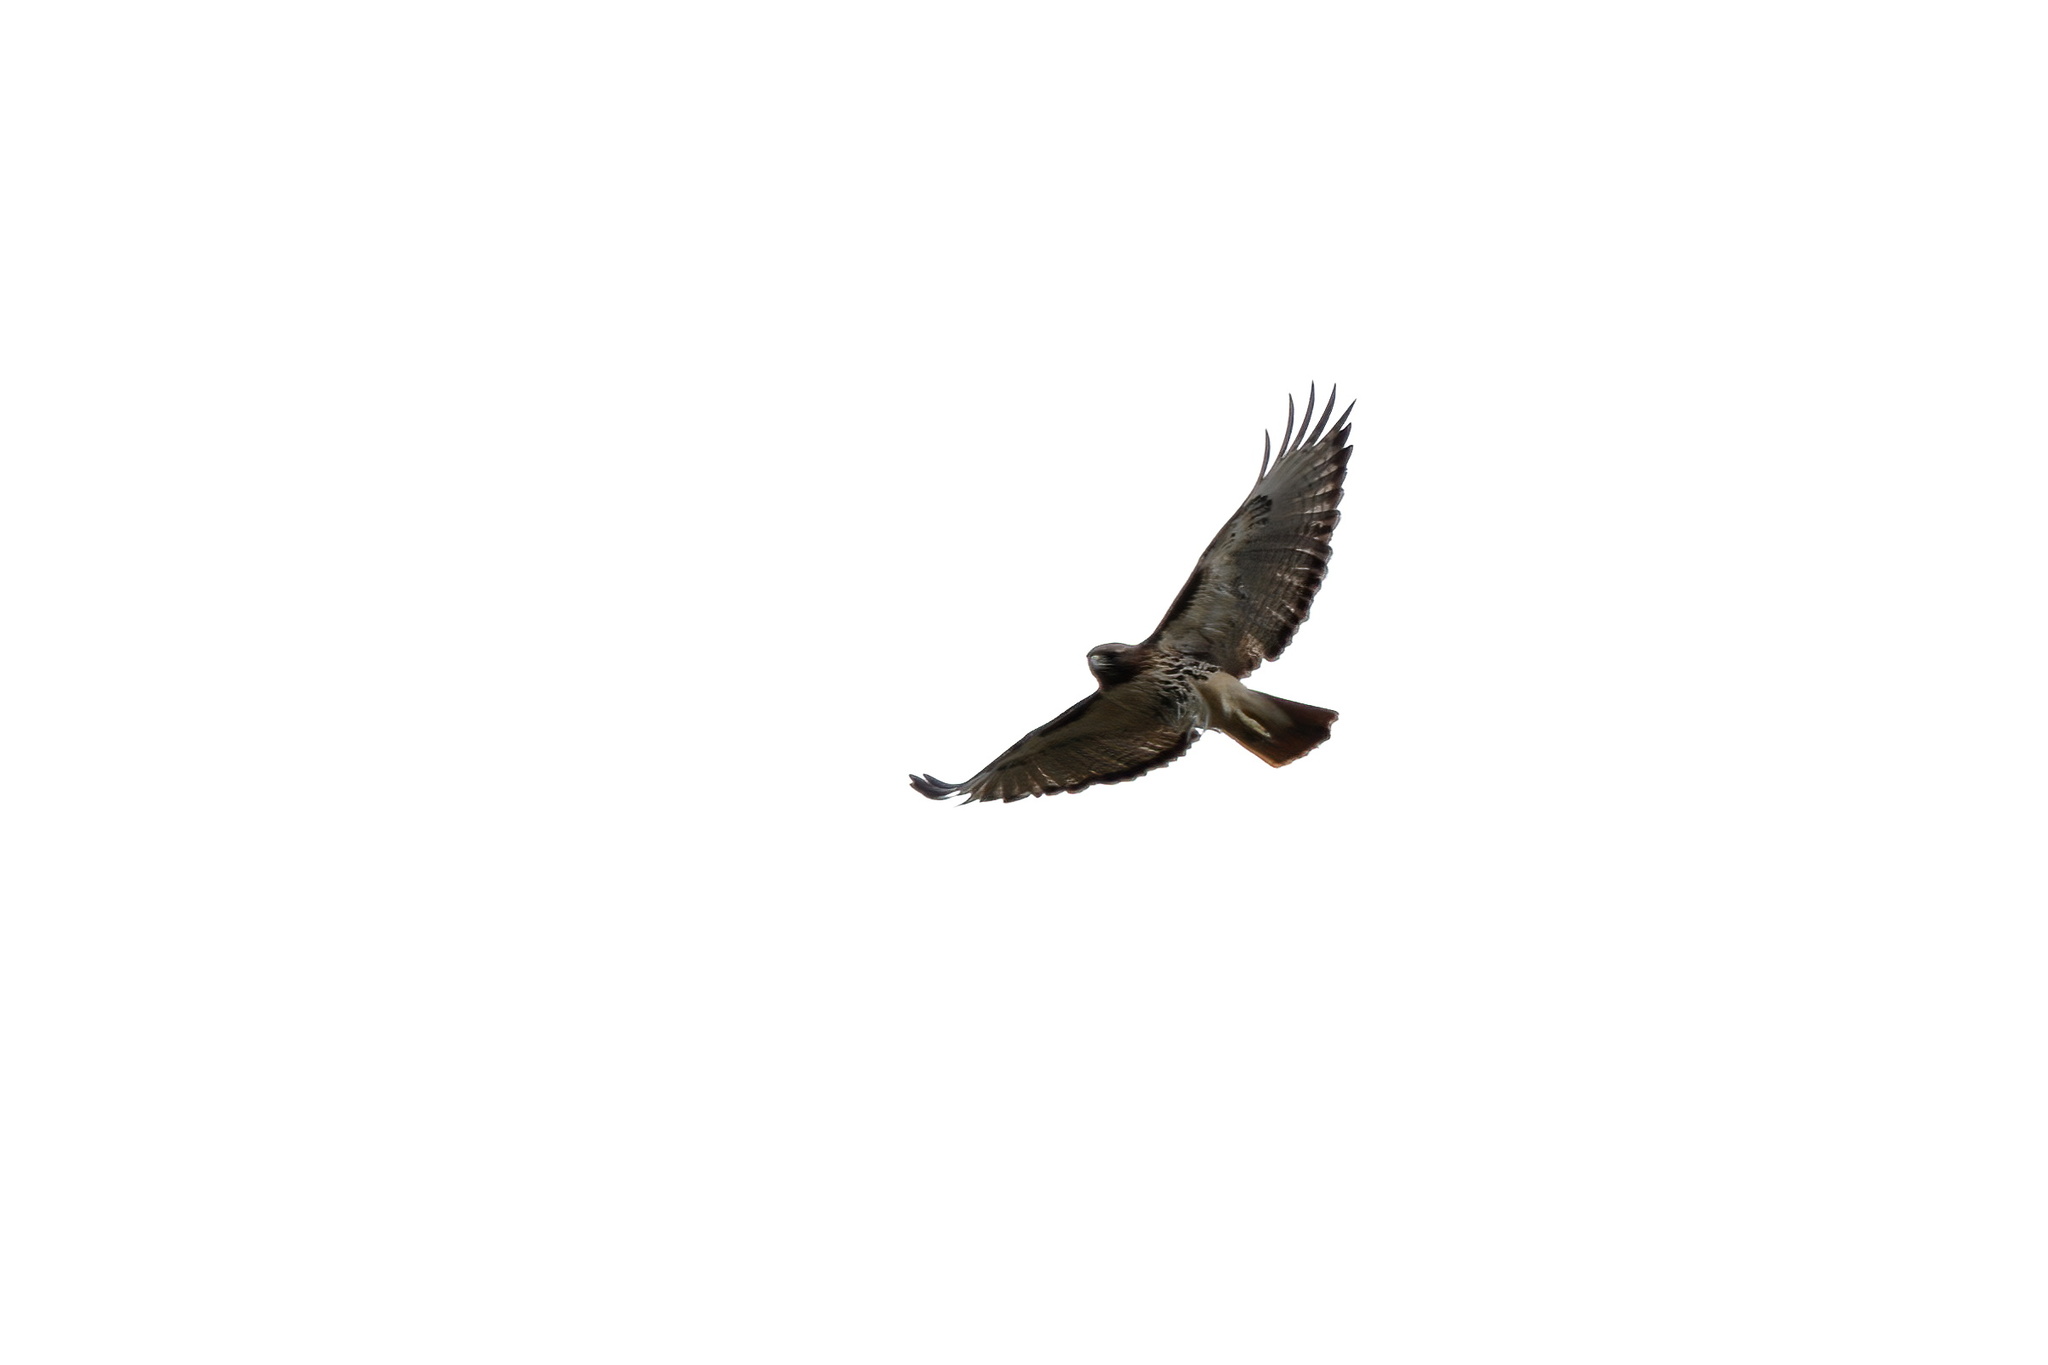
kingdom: Animalia
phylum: Chordata
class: Aves
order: Accipitriformes
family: Accipitridae
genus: Buteo
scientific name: Buteo jamaicensis
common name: Red-tailed hawk
